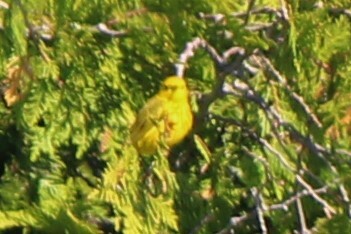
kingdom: Animalia
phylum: Chordata
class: Aves
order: Passeriformes
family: Parulidae
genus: Setophaga
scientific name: Setophaga petechia
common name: Yellow warbler
